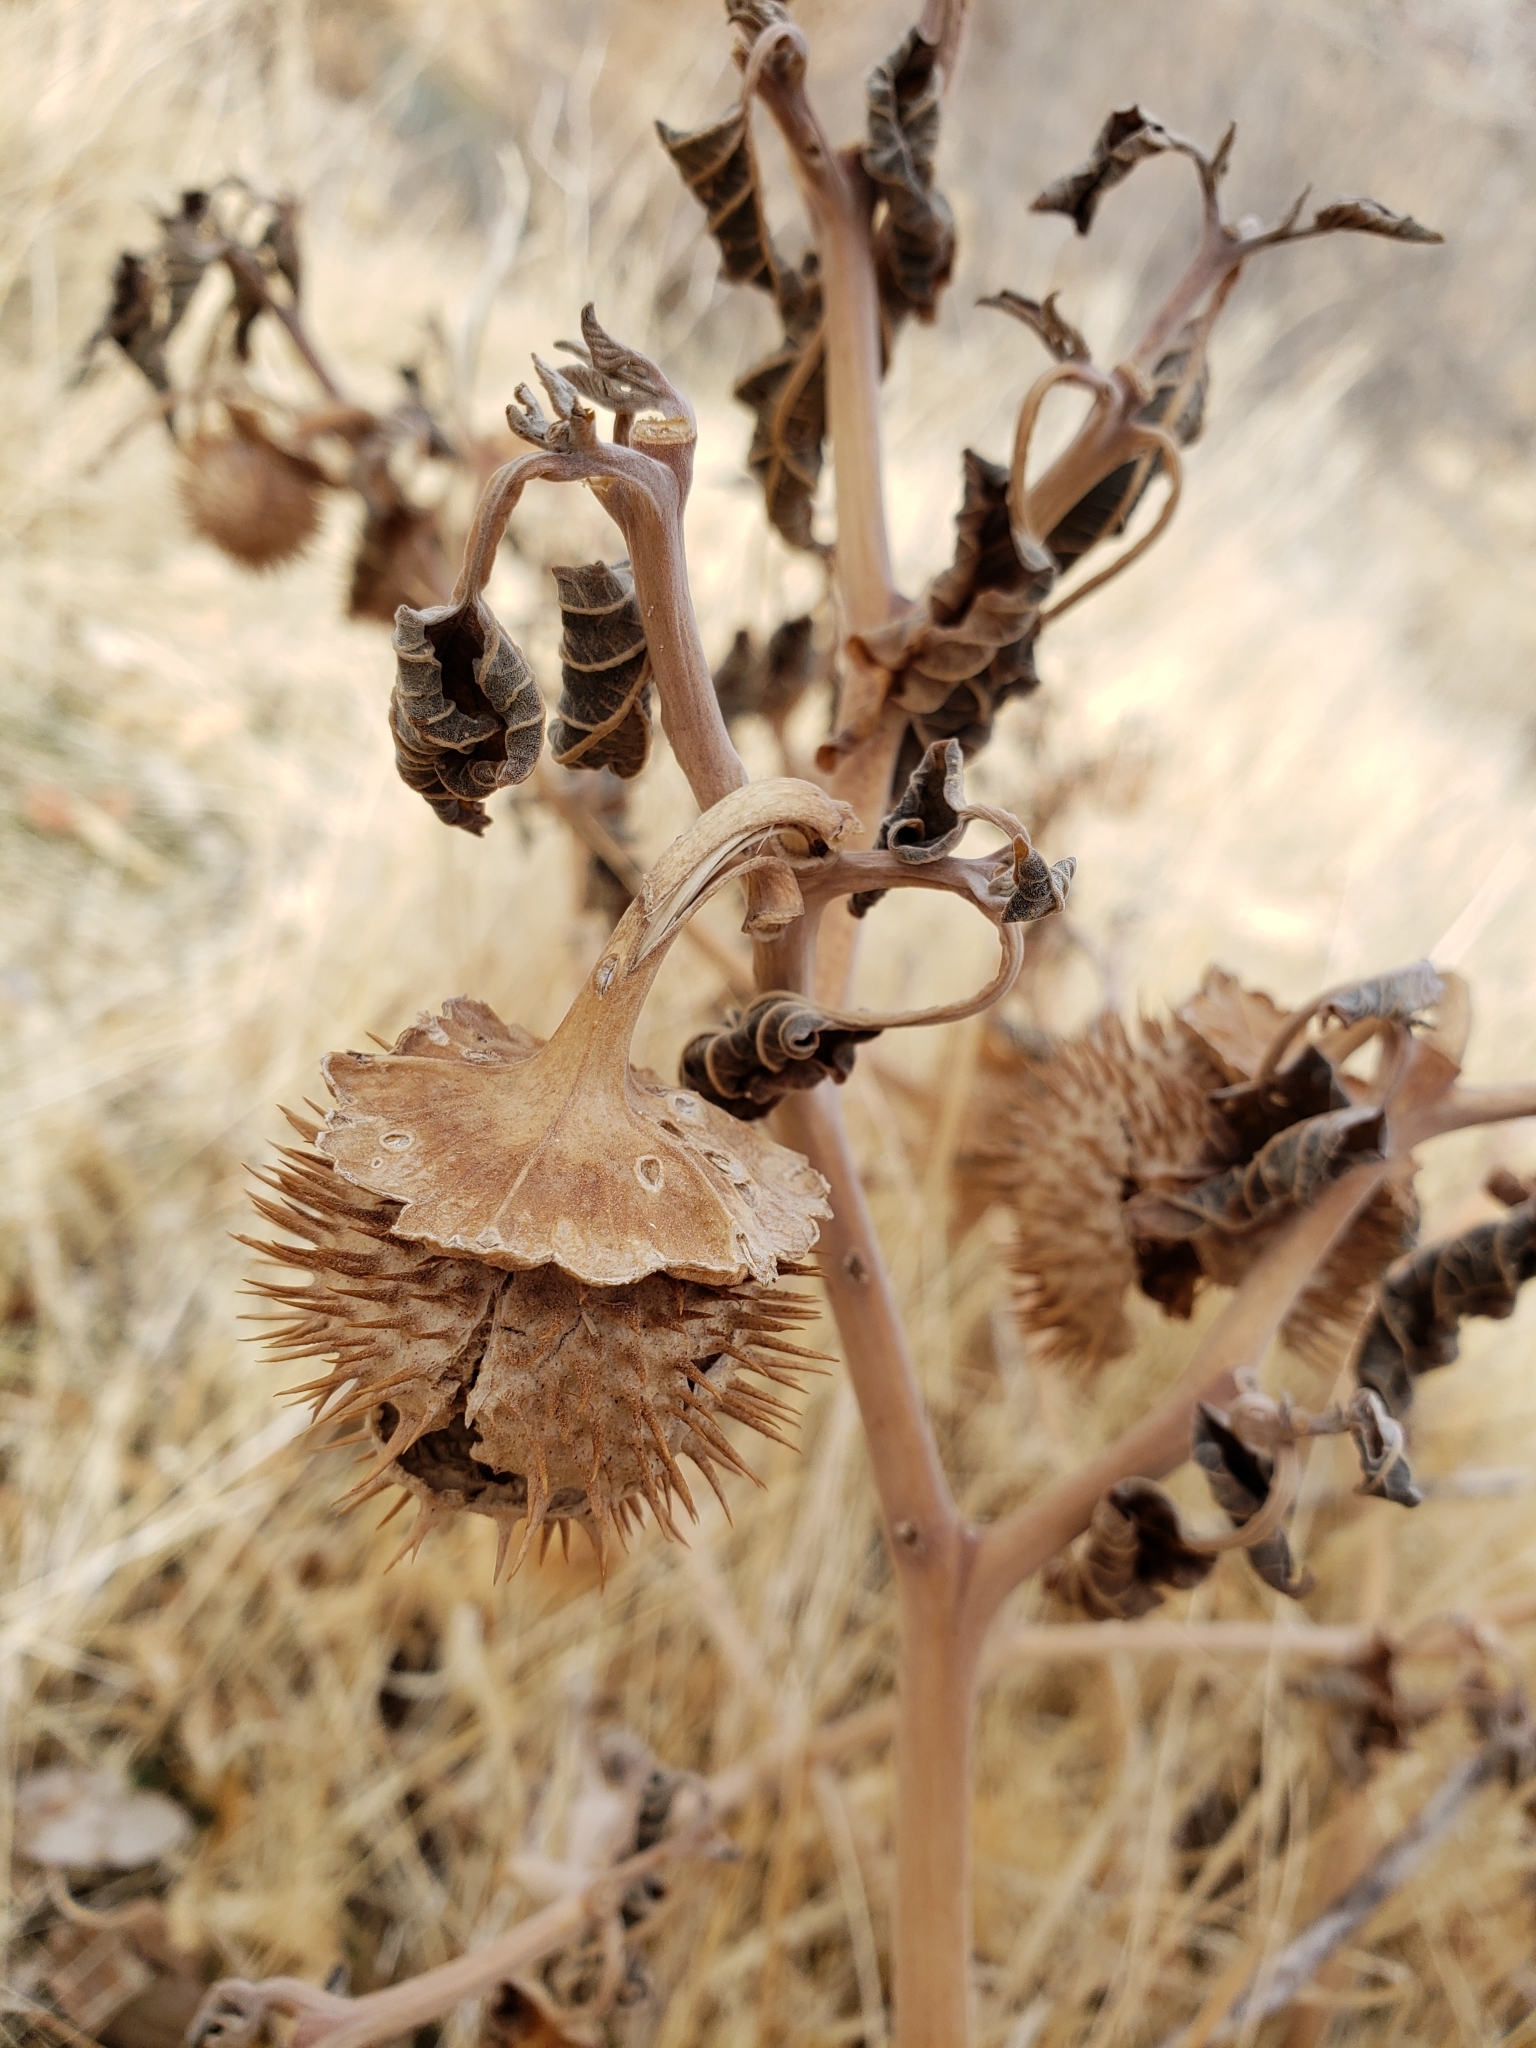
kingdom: Plantae
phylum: Tracheophyta
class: Magnoliopsida
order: Solanales
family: Solanaceae
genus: Datura
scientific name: Datura wrightii
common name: Sacred thorn-apple
